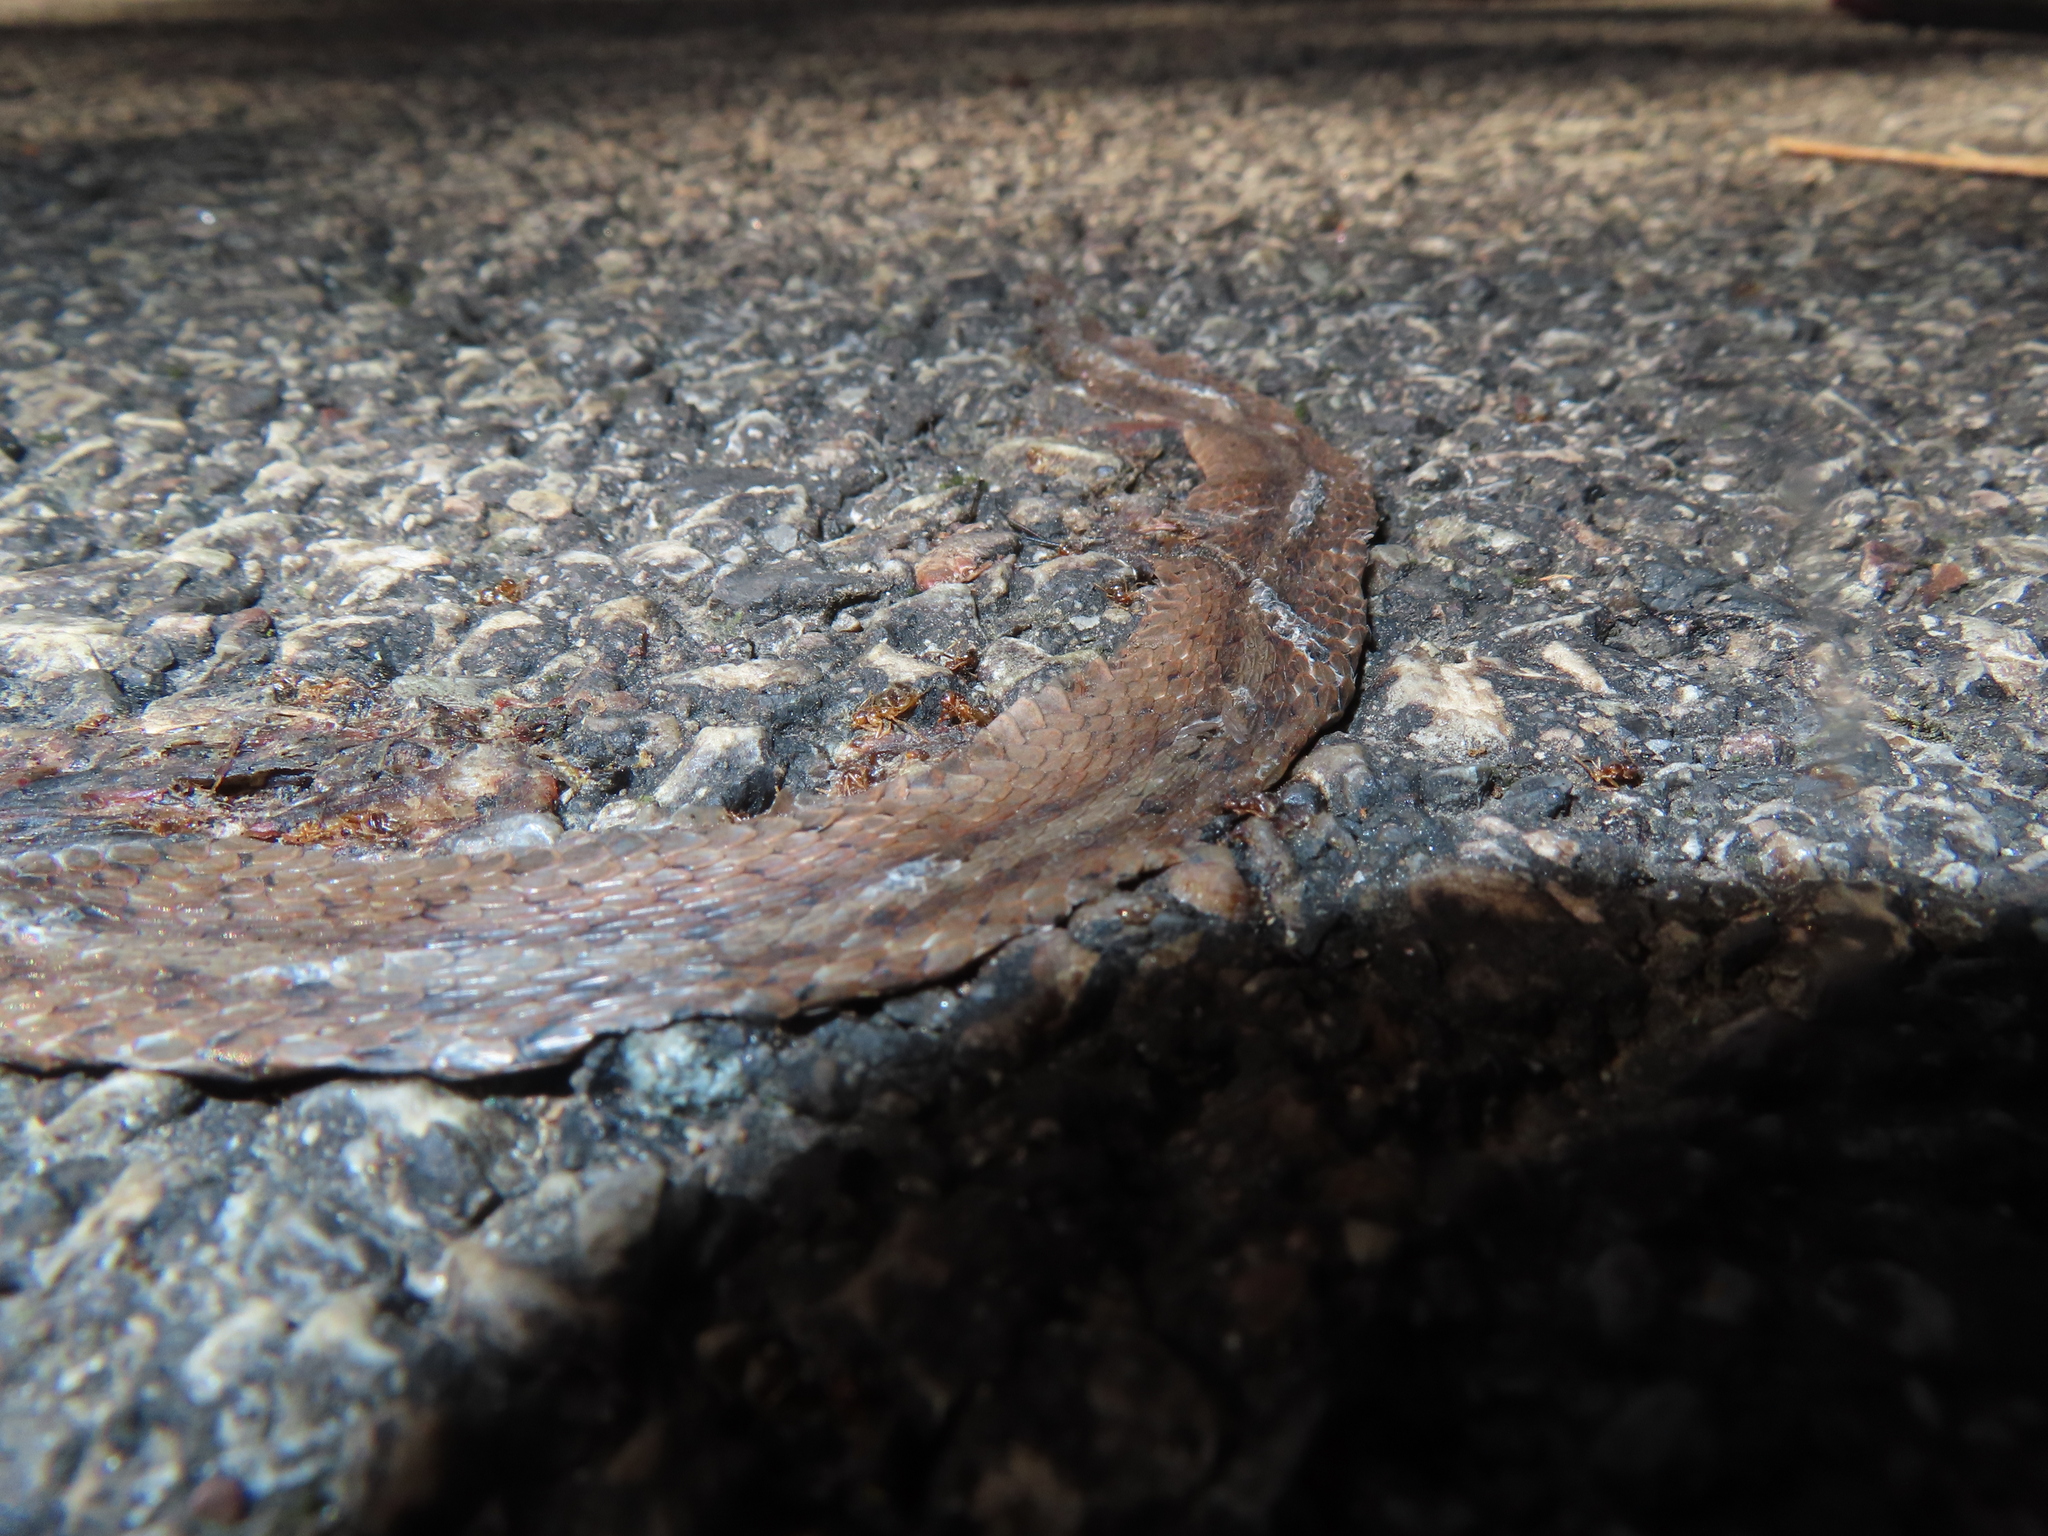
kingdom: Animalia
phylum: Chordata
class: Squamata
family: Colubridae
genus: Storeria
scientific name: Storeria dekayi
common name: (dekay’s) brown snake
